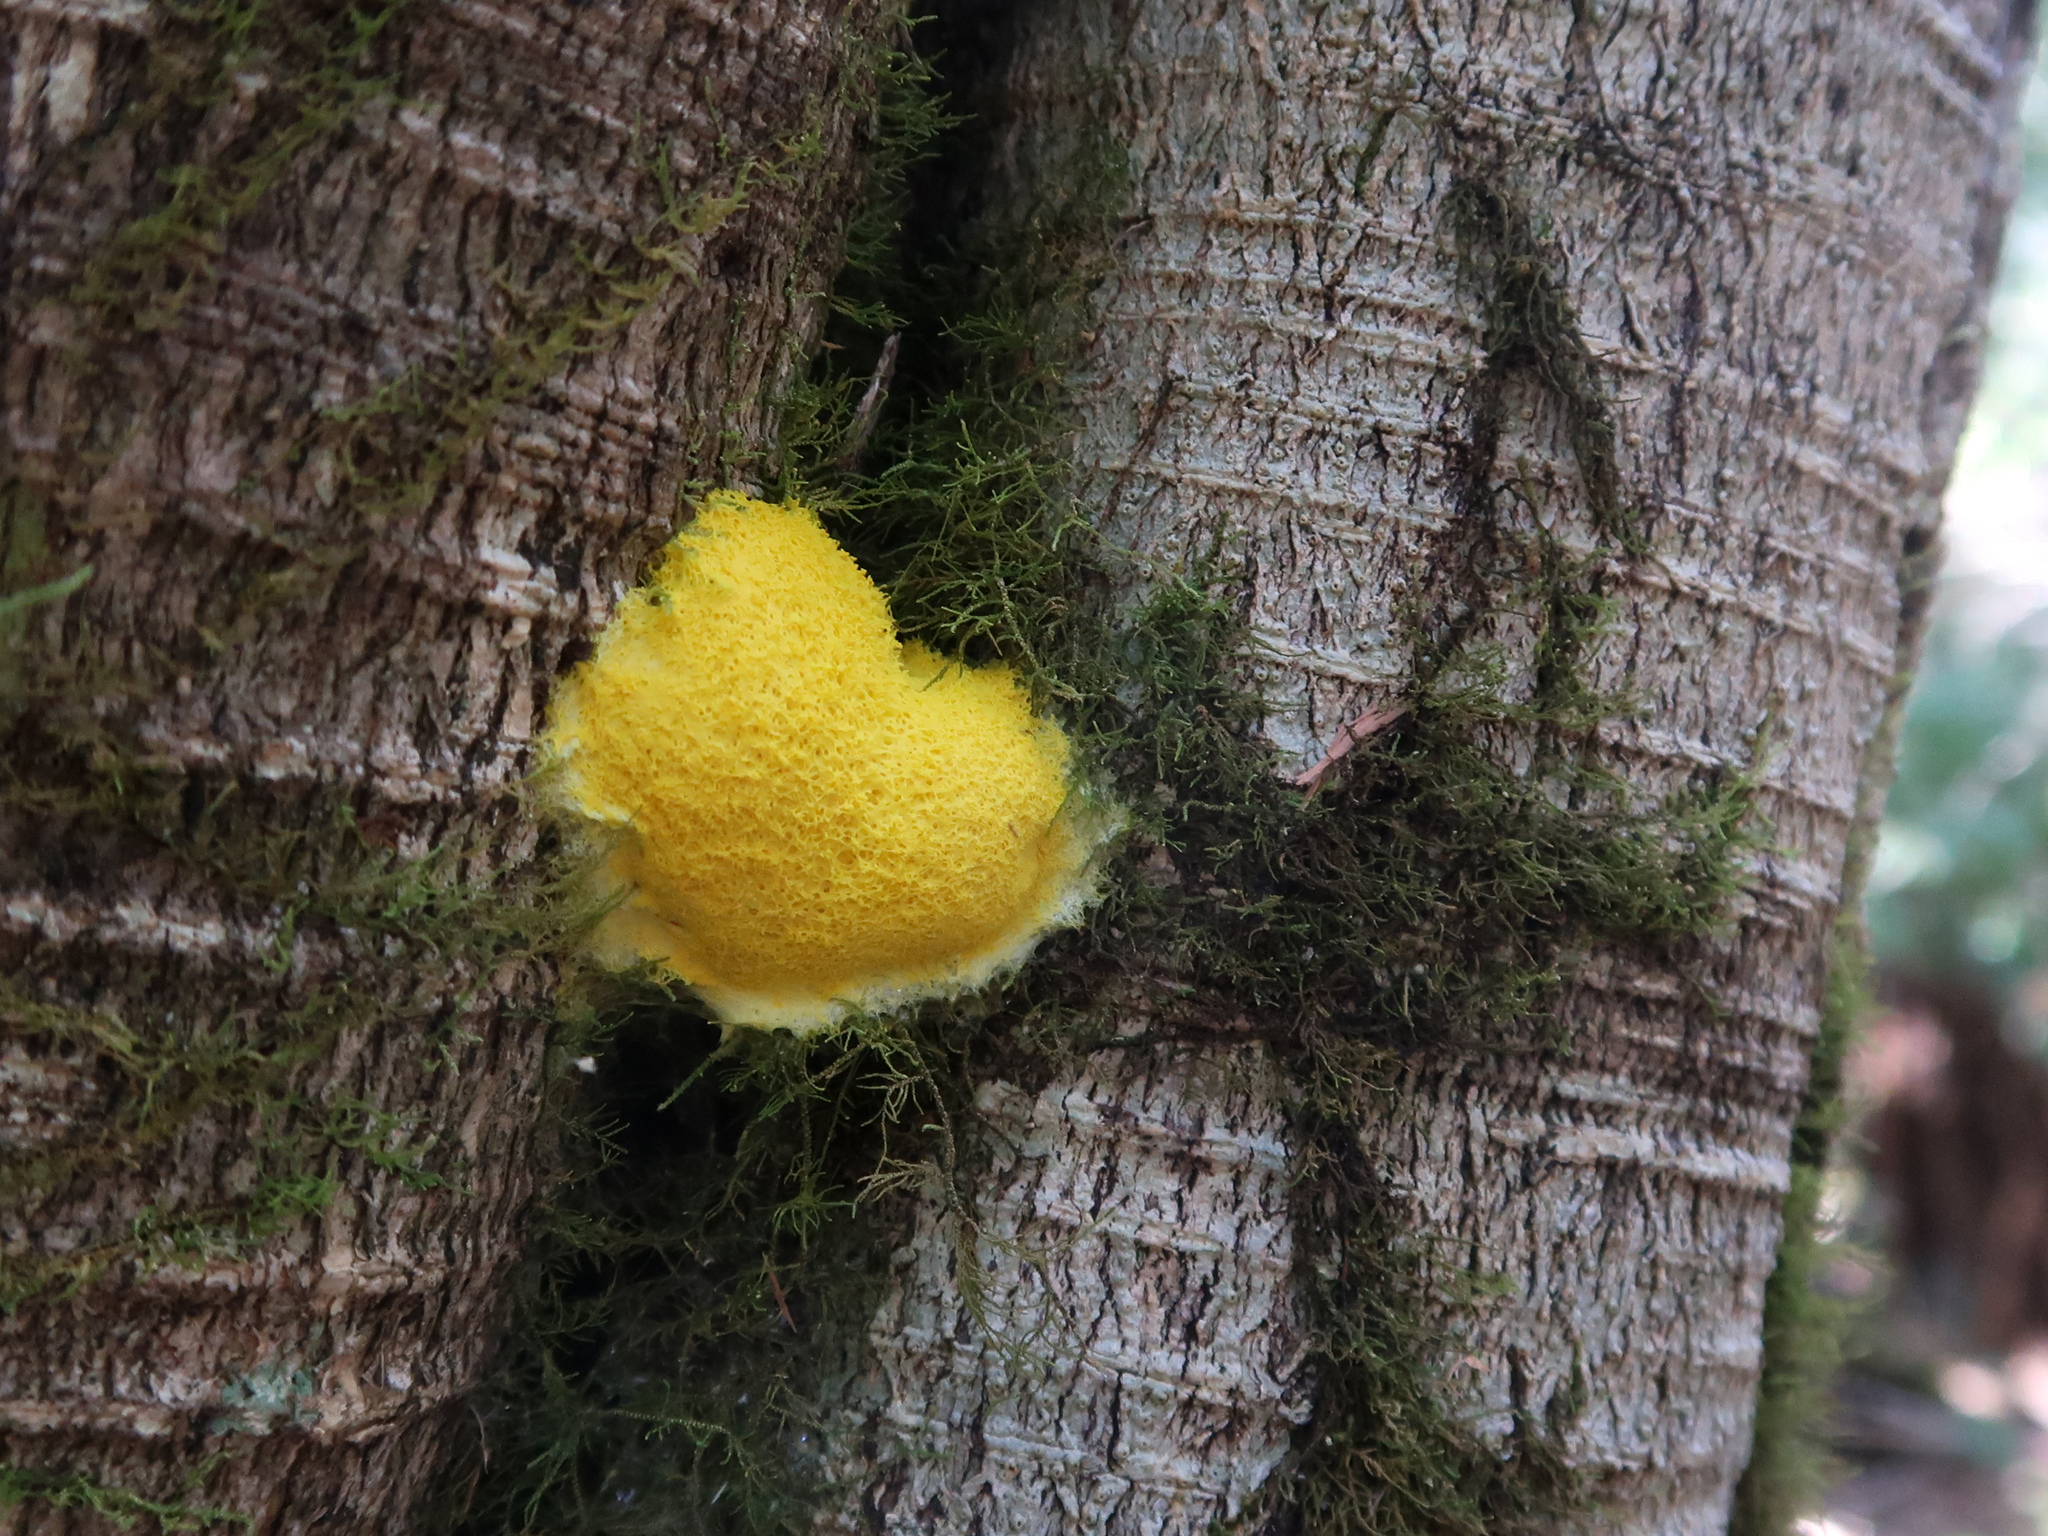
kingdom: Protozoa
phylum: Mycetozoa
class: Myxomycetes
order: Physarales
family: Physaraceae
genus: Fuligo
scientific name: Fuligo septica
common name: Dog vomit slime mold
